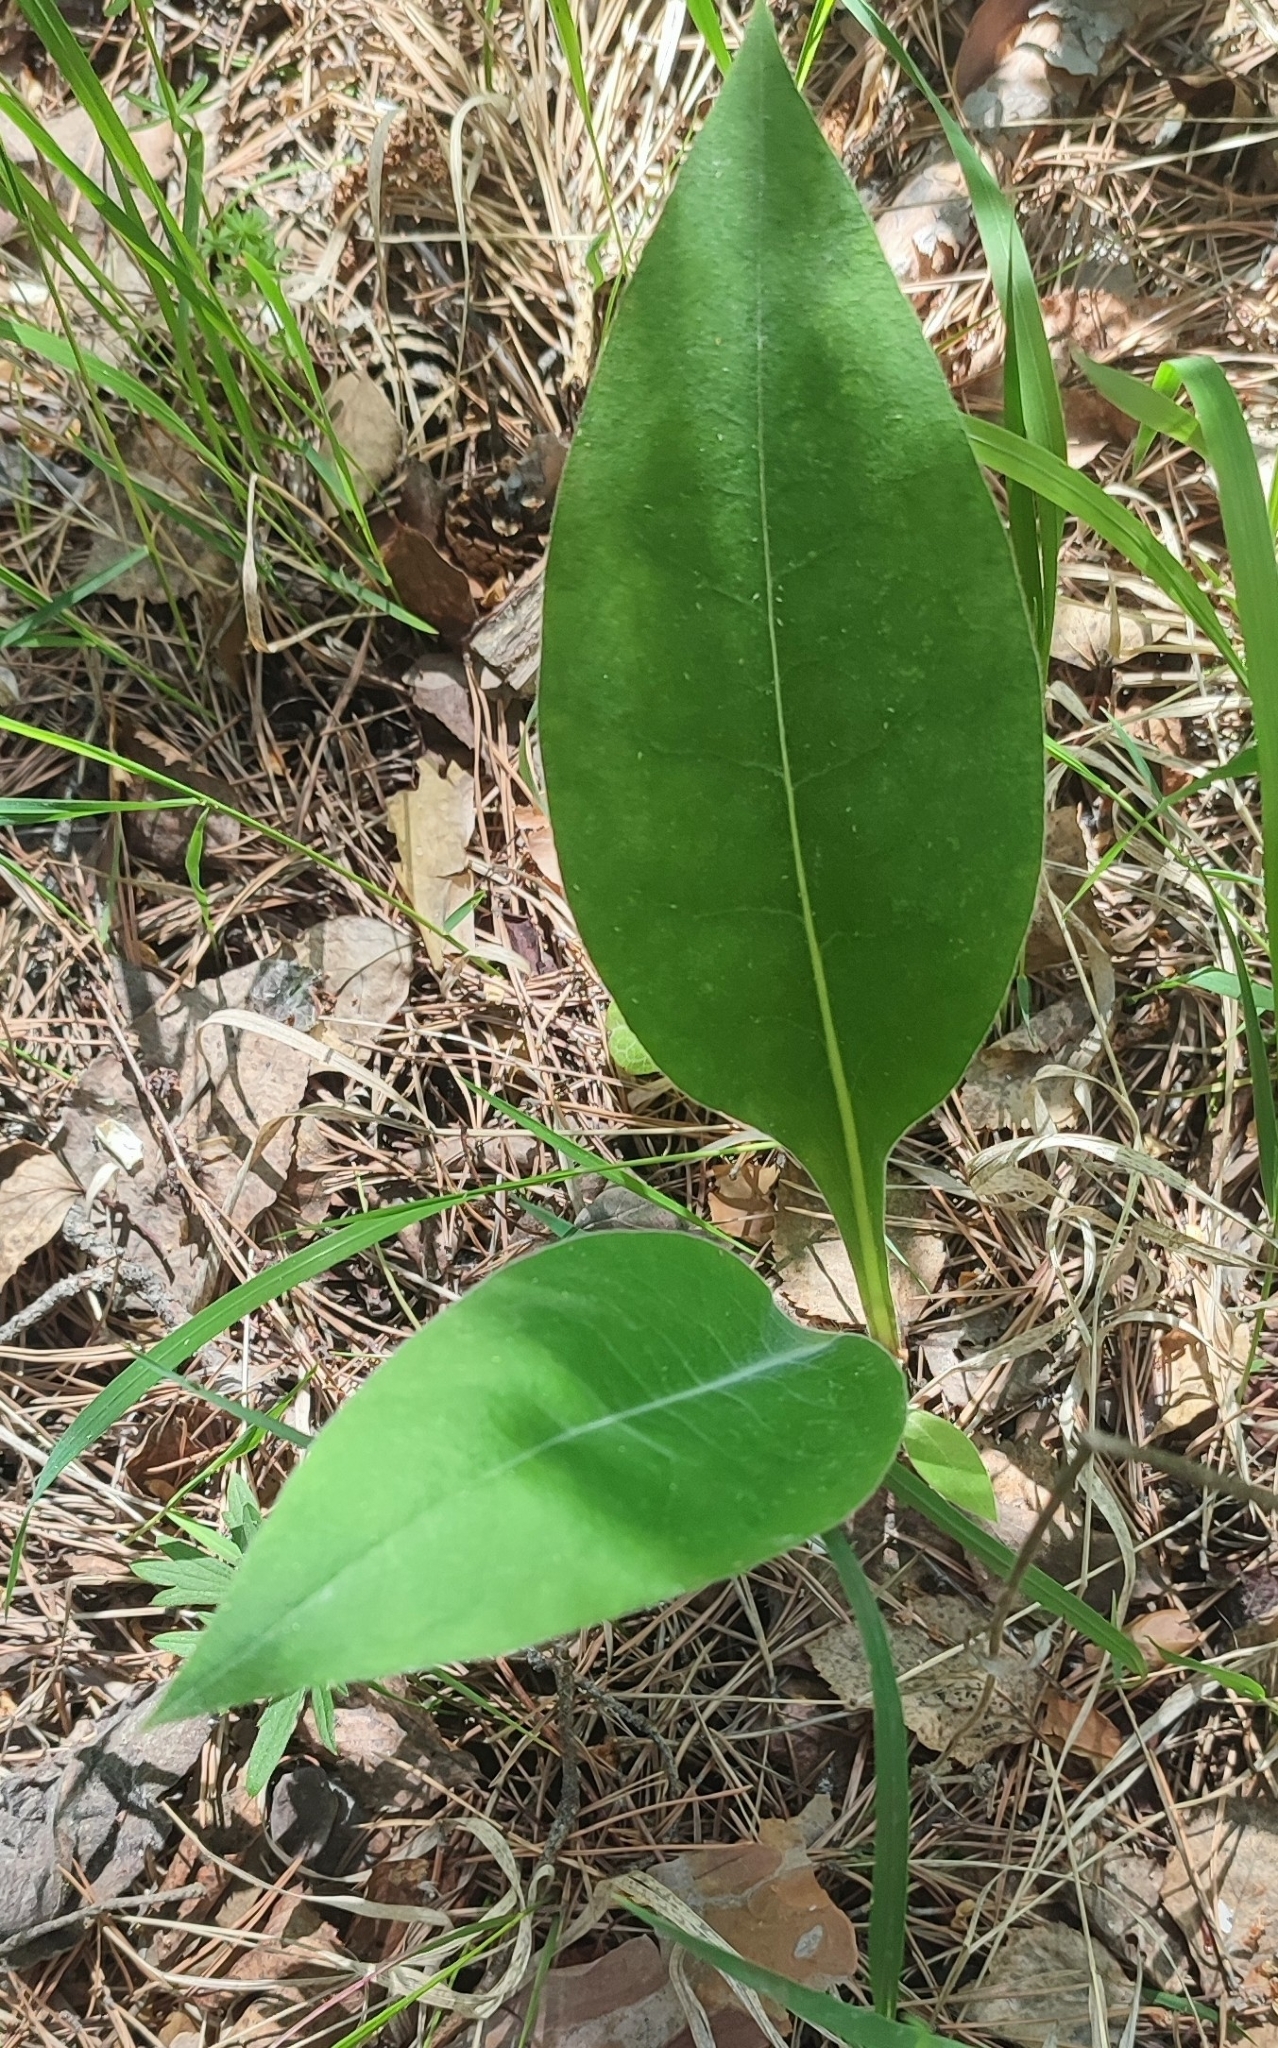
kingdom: Plantae
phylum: Tracheophyta
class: Magnoliopsida
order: Boraginales
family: Boraginaceae
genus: Pulmonaria
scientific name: Pulmonaria mollis
